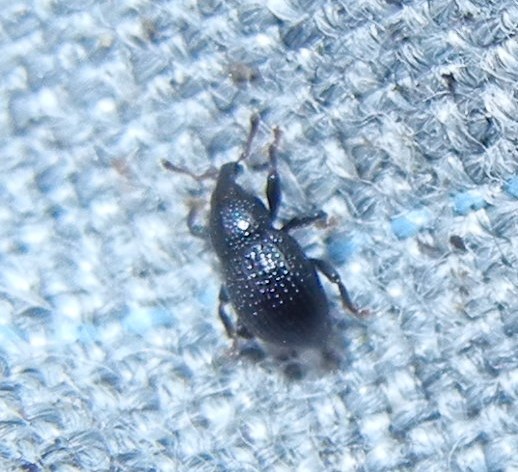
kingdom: Animalia
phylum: Arthropoda
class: Insecta
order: Coleoptera
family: Curculionidae
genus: Leiosoma
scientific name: Leiosoma deflexum
